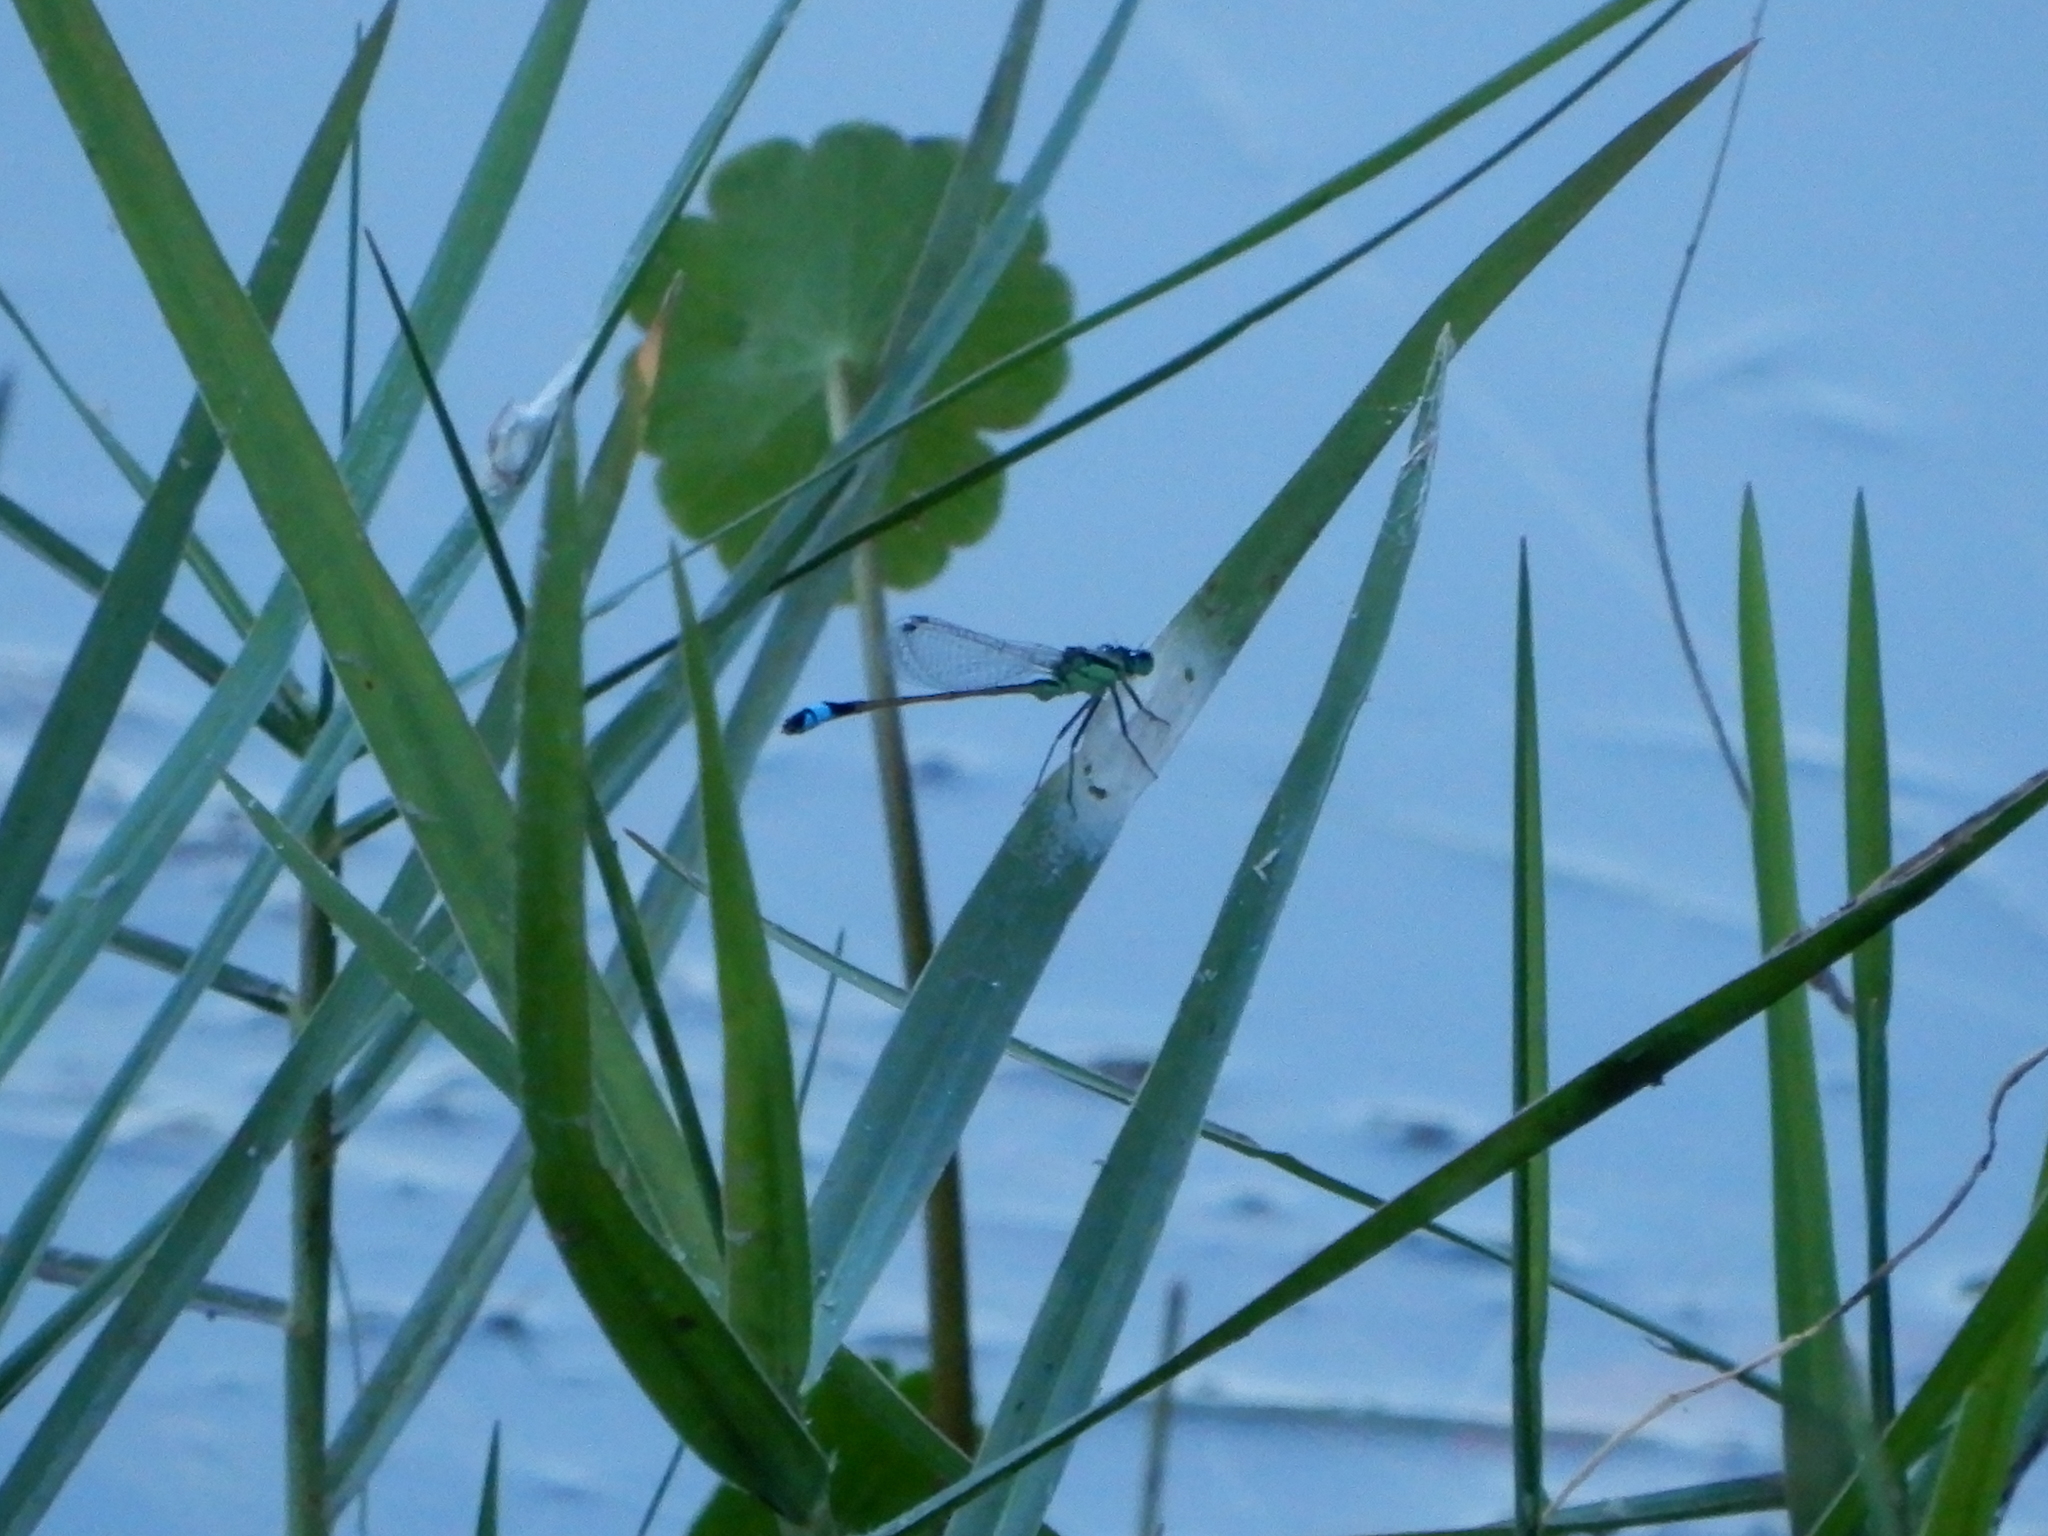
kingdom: Animalia
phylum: Arthropoda
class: Insecta
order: Odonata
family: Coenagrionidae
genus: Ischnura
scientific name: Ischnura ramburii
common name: Rambur's forktail
